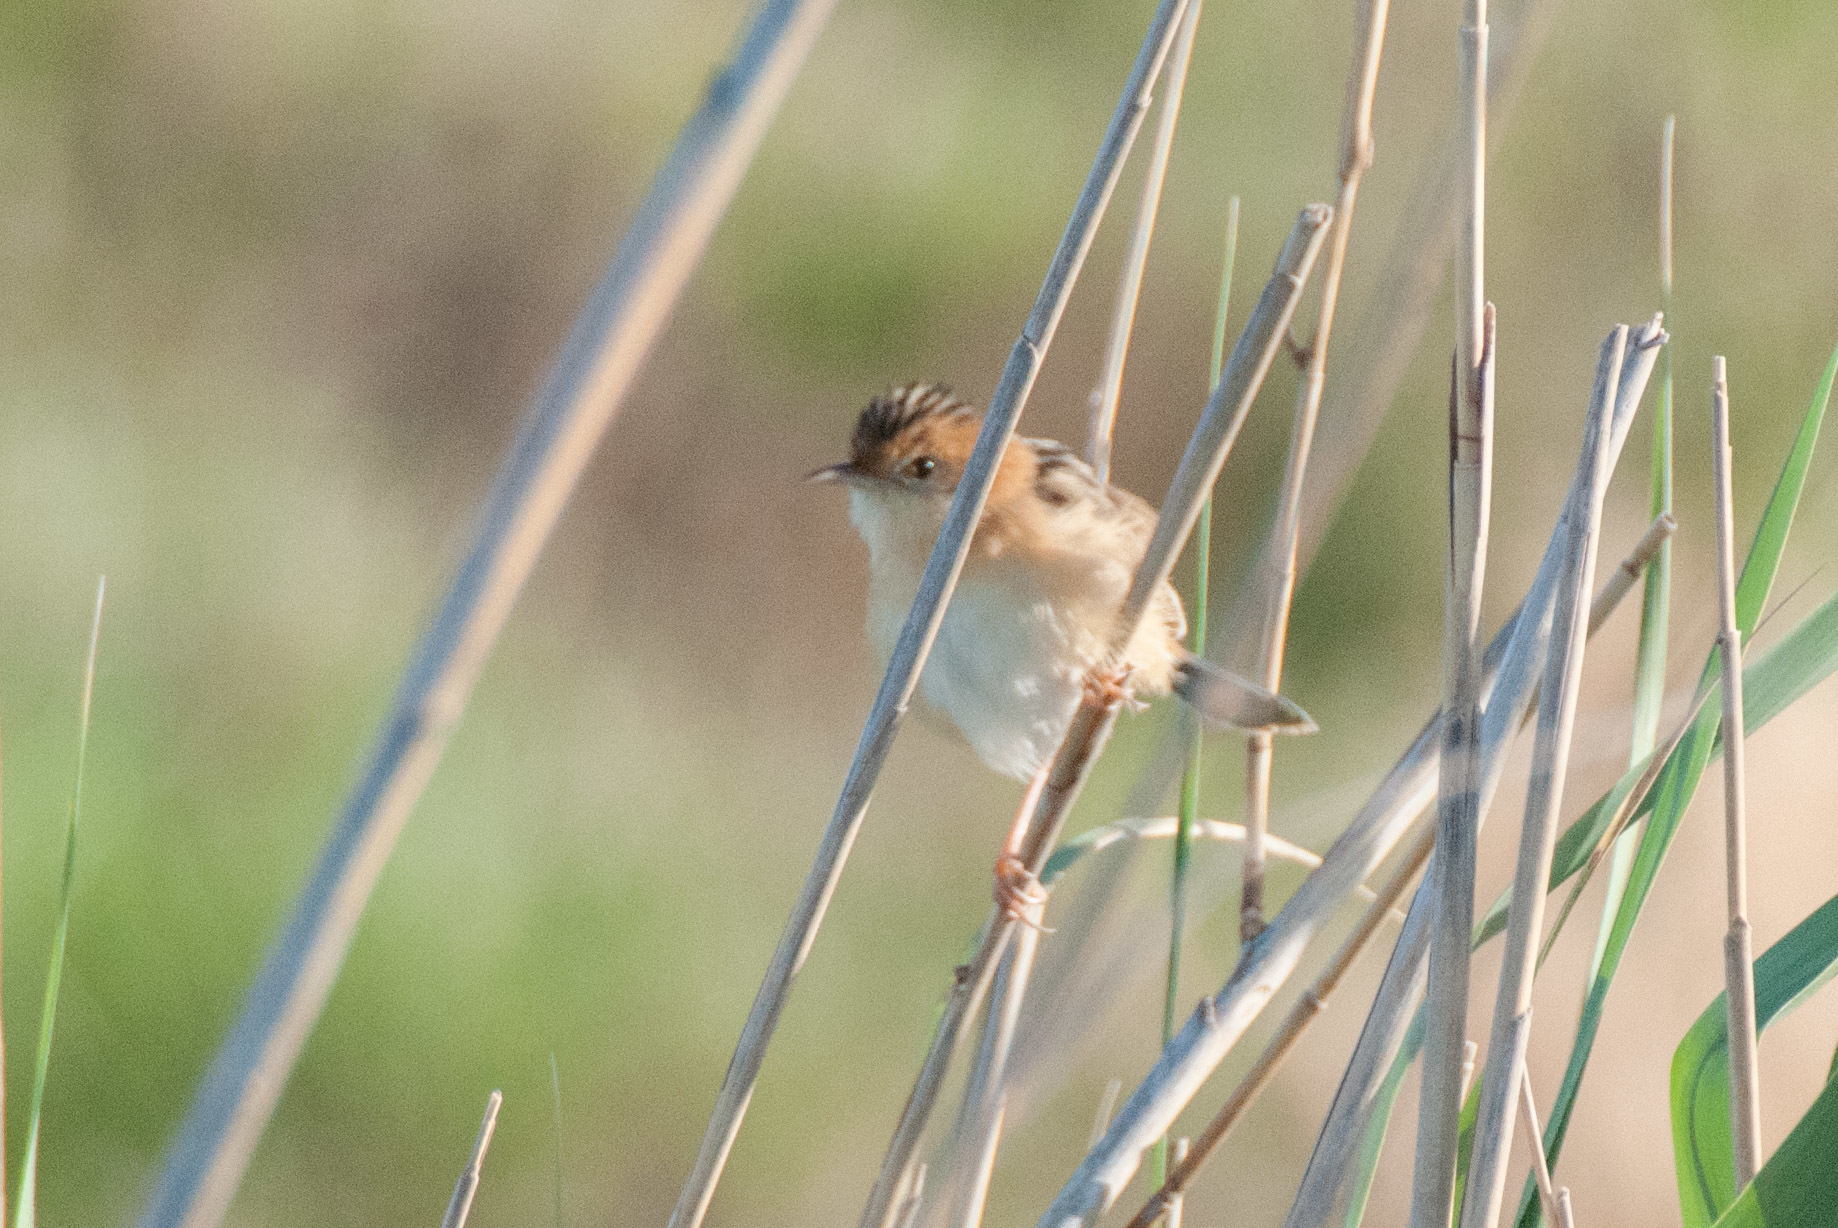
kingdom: Animalia
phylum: Chordata
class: Aves
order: Passeriformes
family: Cisticolidae
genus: Cisticola
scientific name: Cisticola exilis
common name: Golden-headed cisticola
